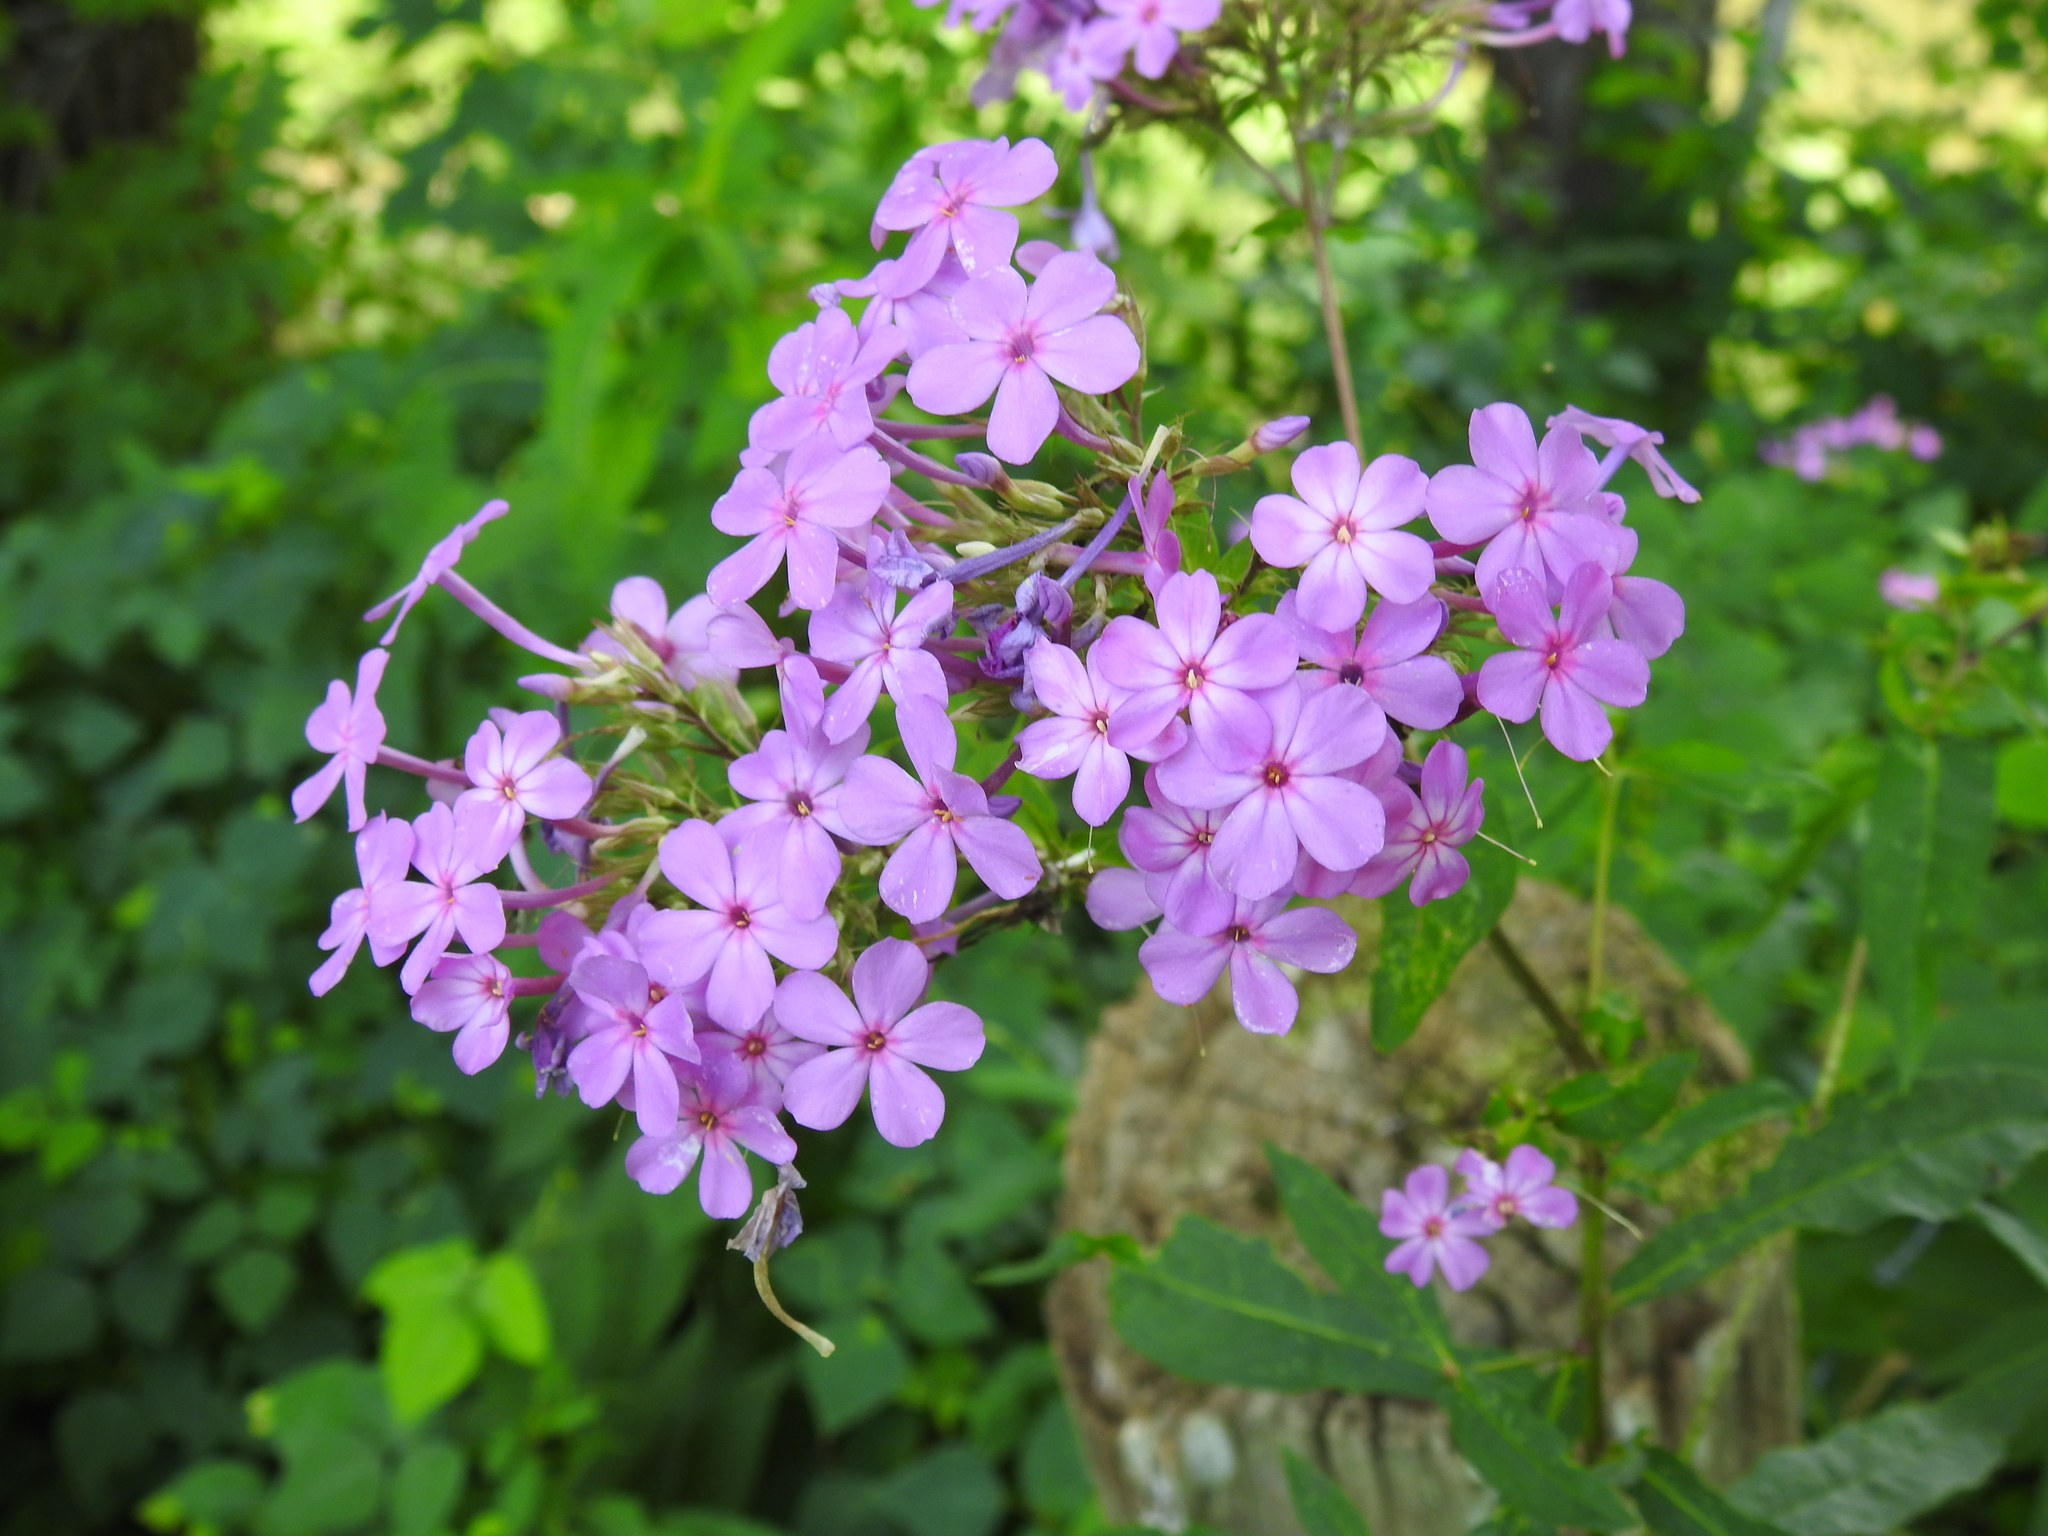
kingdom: Plantae
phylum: Tracheophyta
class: Magnoliopsida
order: Ericales
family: Polemoniaceae
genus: Phlox
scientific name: Phlox paniculata
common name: Fall phlox
